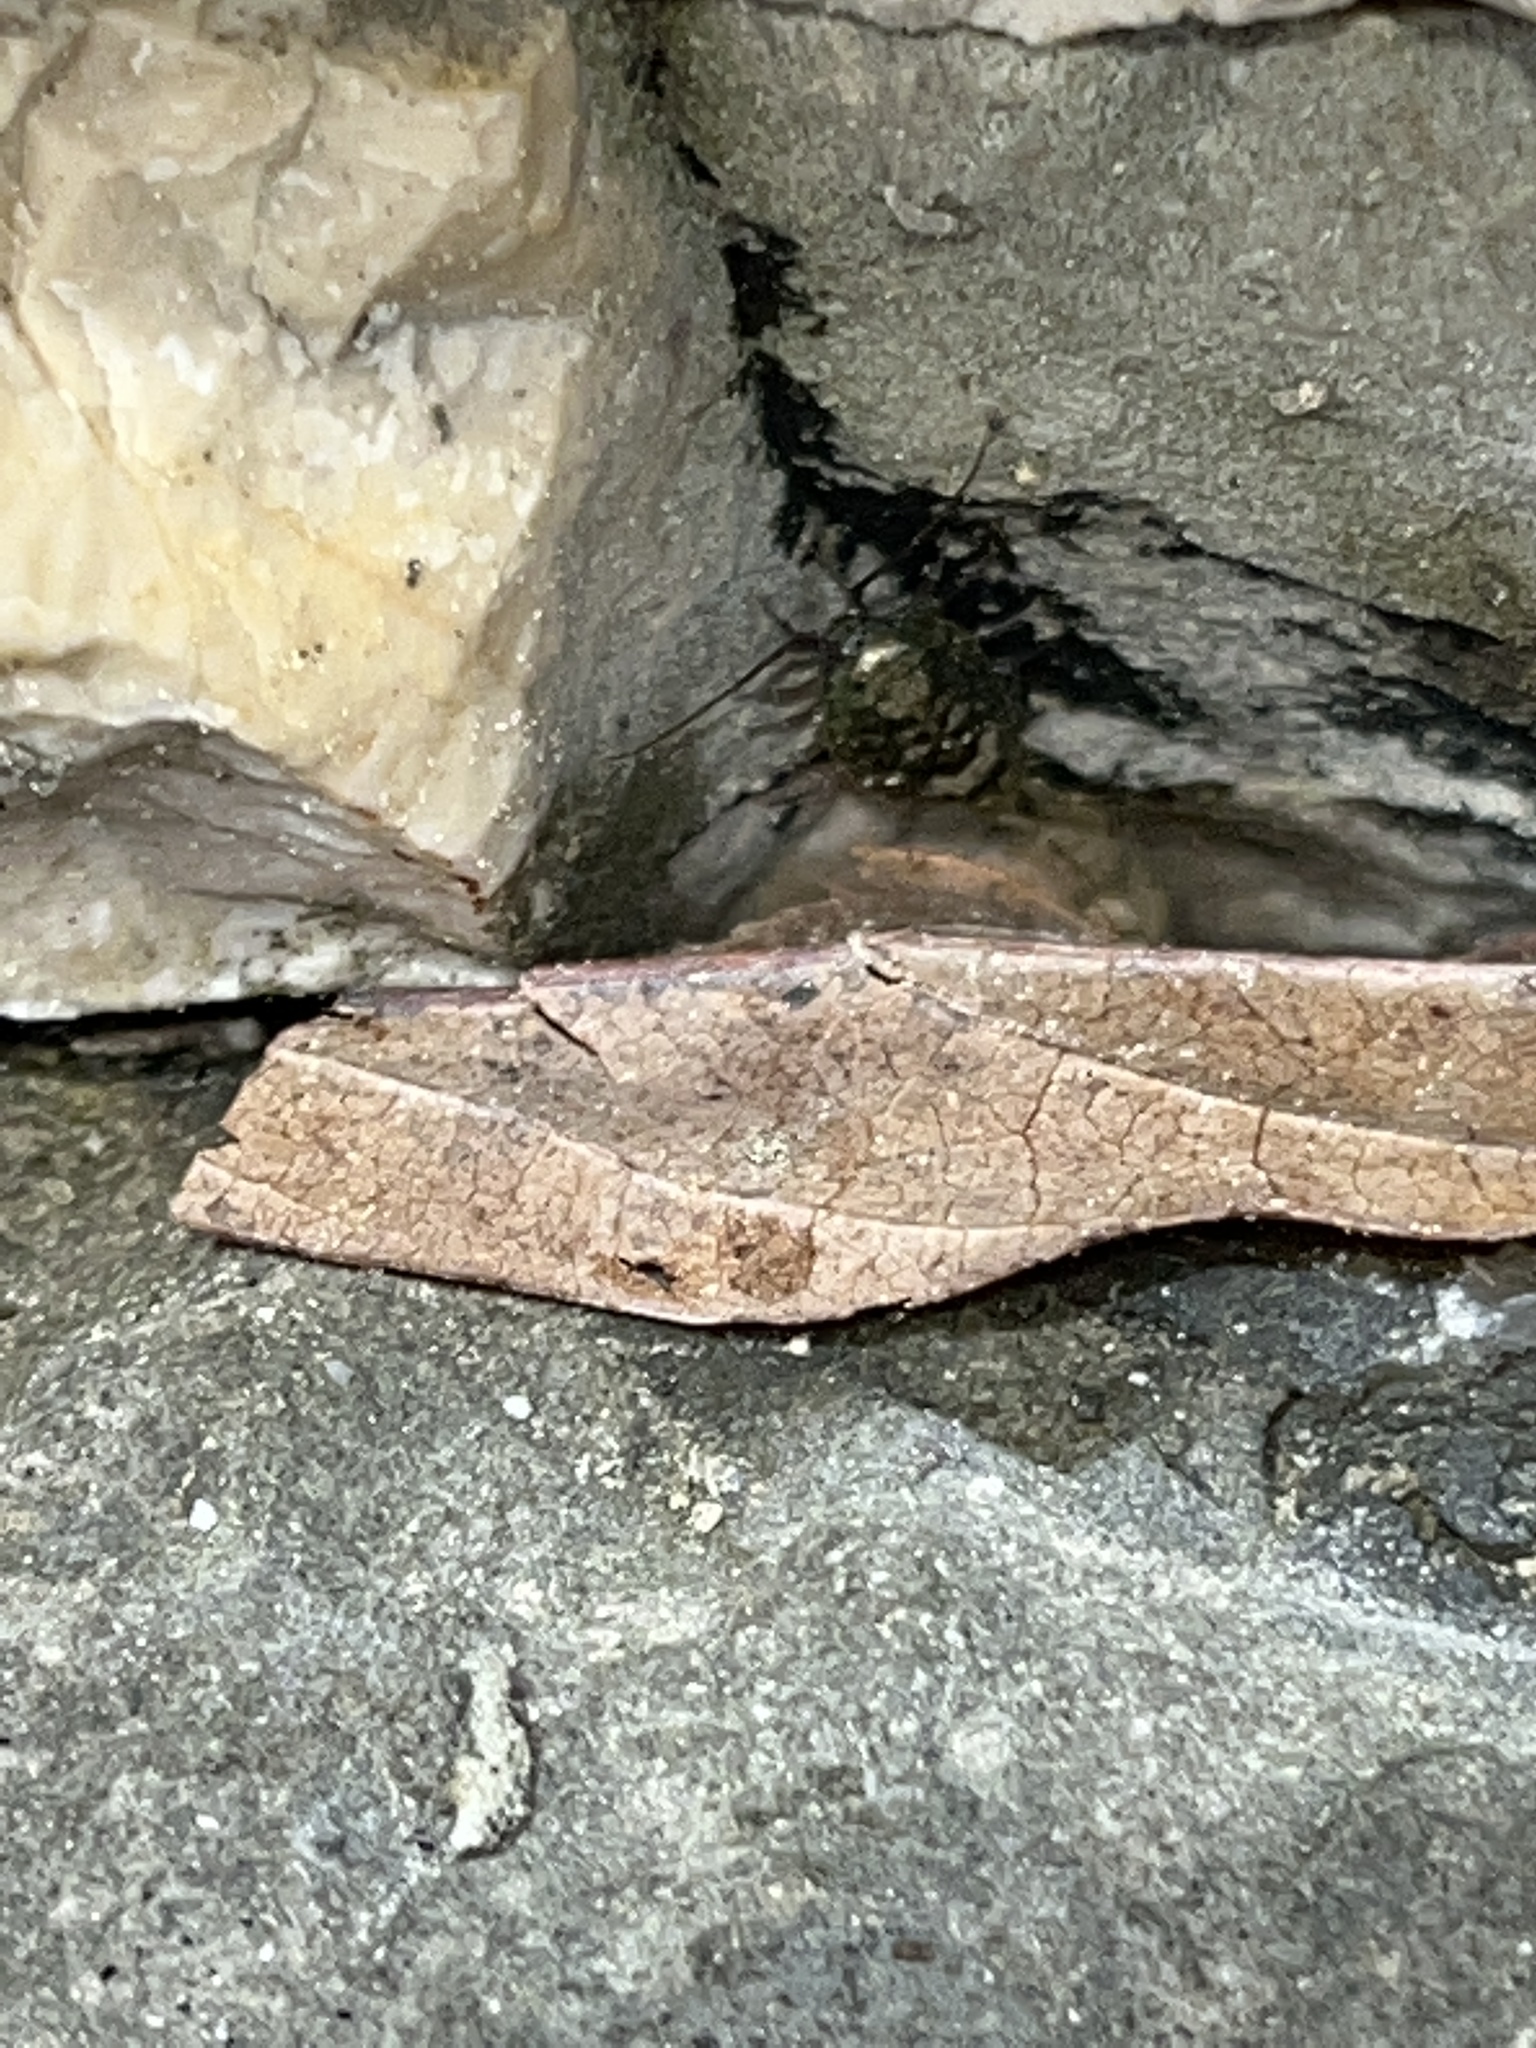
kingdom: Animalia
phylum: Arthropoda
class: Malacostraca
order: Isopoda
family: Ligiidae
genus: Ligia
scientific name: Ligia italica
